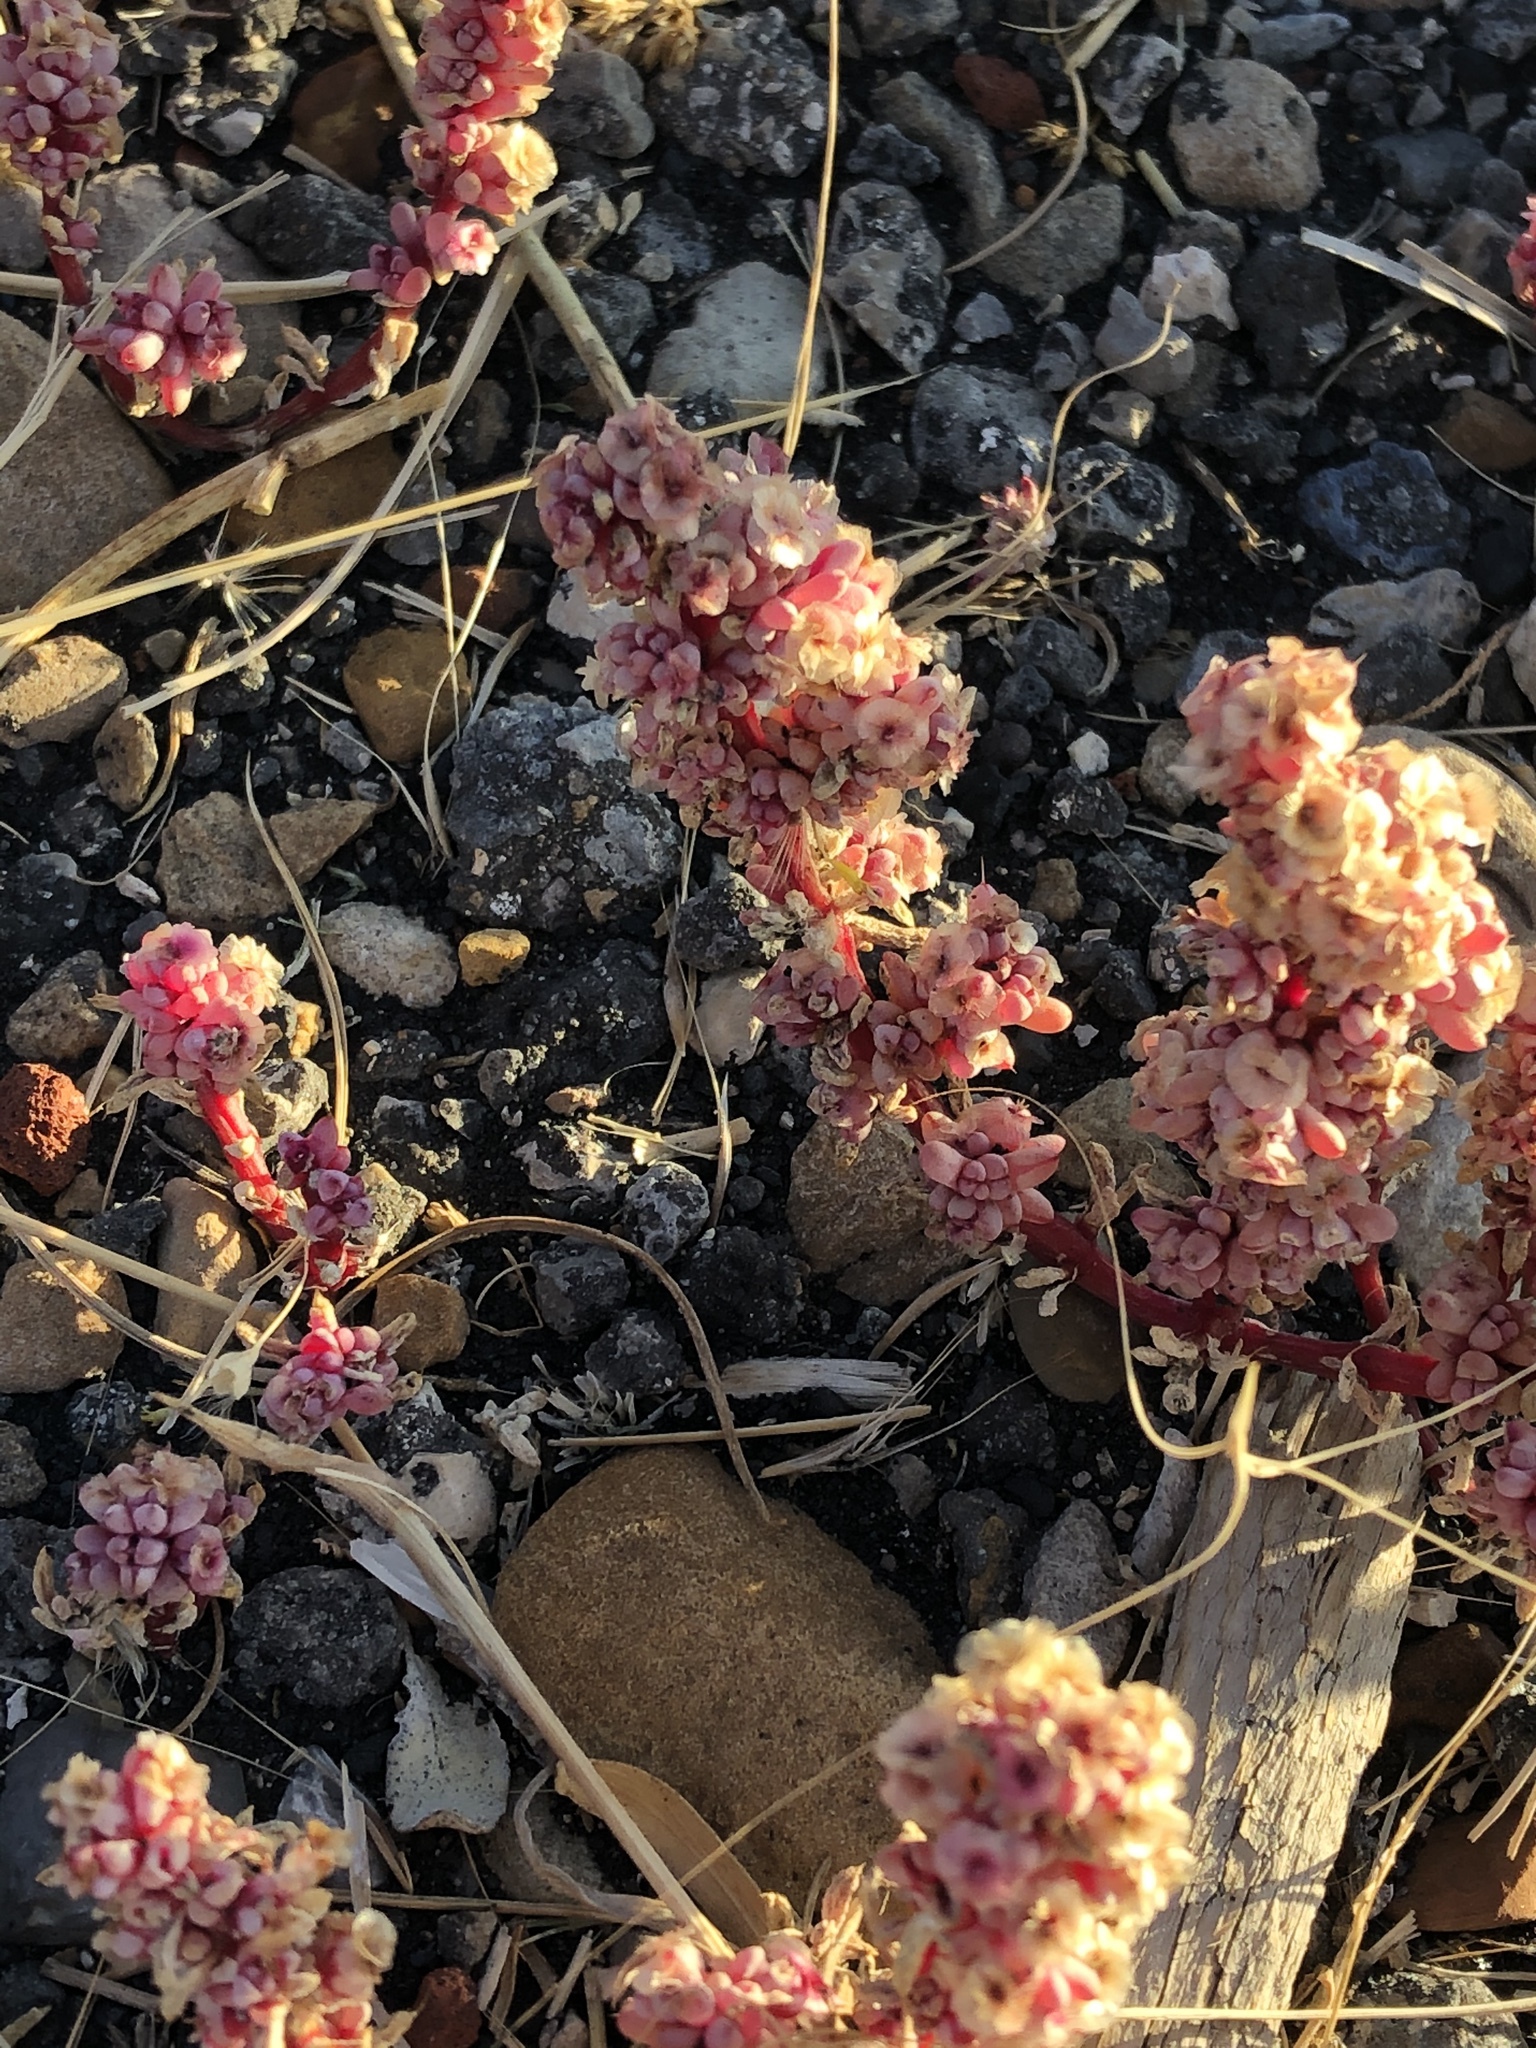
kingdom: Plantae
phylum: Tracheophyta
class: Magnoliopsida
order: Caryophyllales
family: Amaranthaceae
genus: Halogeton
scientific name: Halogeton glomeratus
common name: Saltlover
